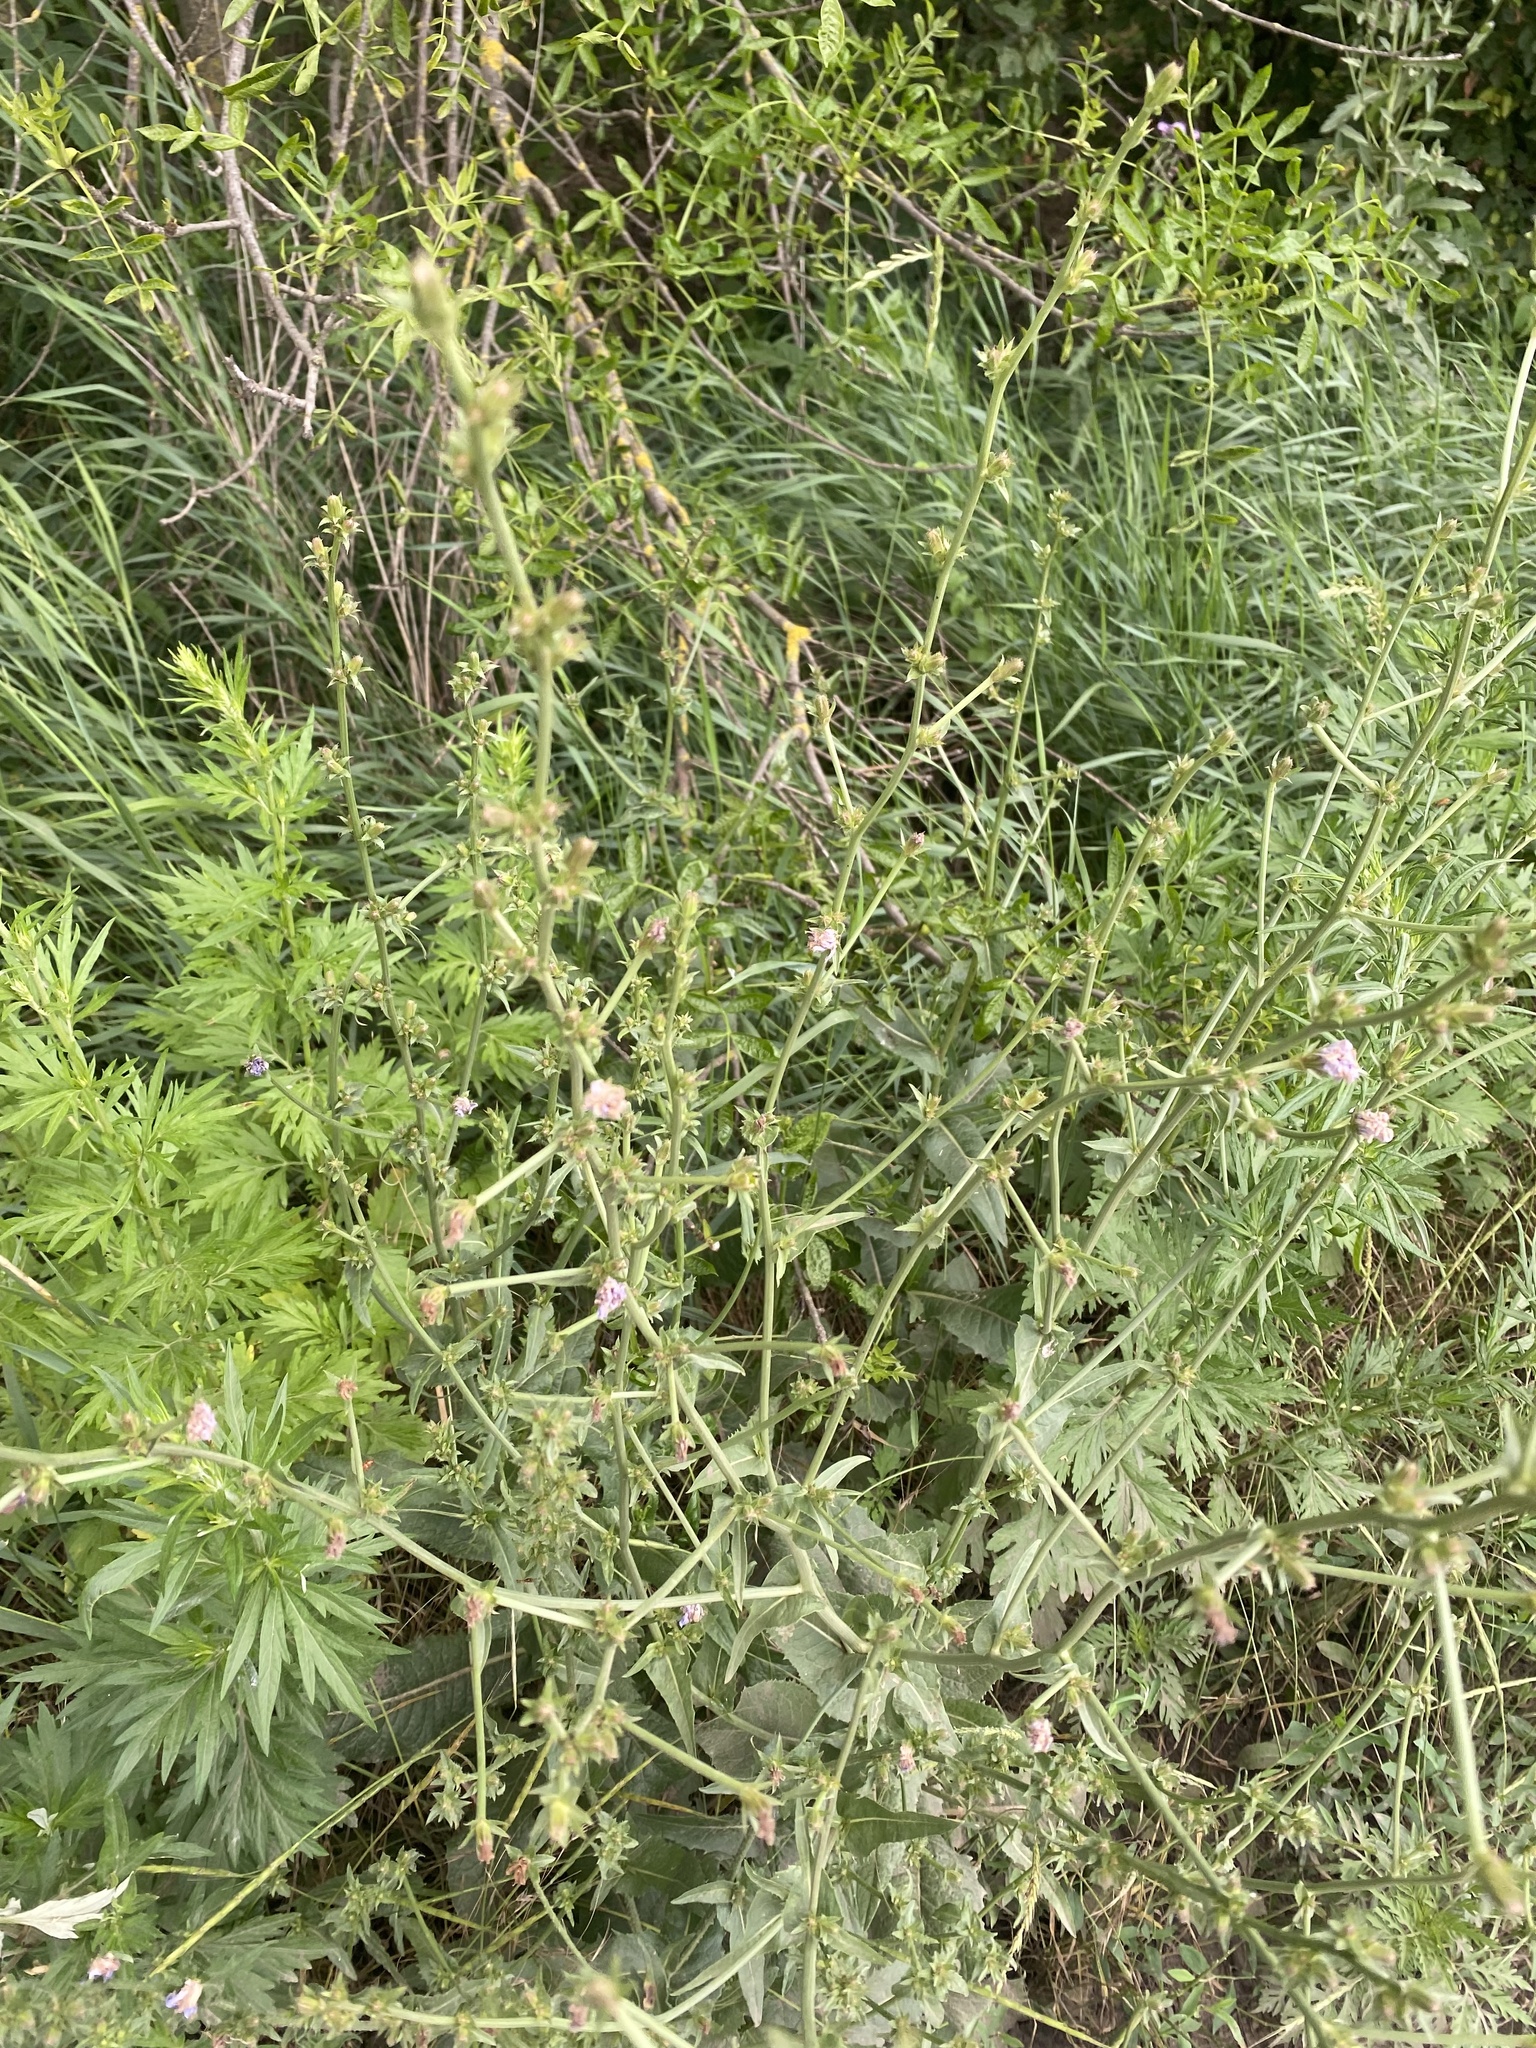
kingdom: Plantae
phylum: Tracheophyta
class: Magnoliopsida
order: Asterales
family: Asteraceae
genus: Cichorium
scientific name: Cichorium intybus
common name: Chicory
